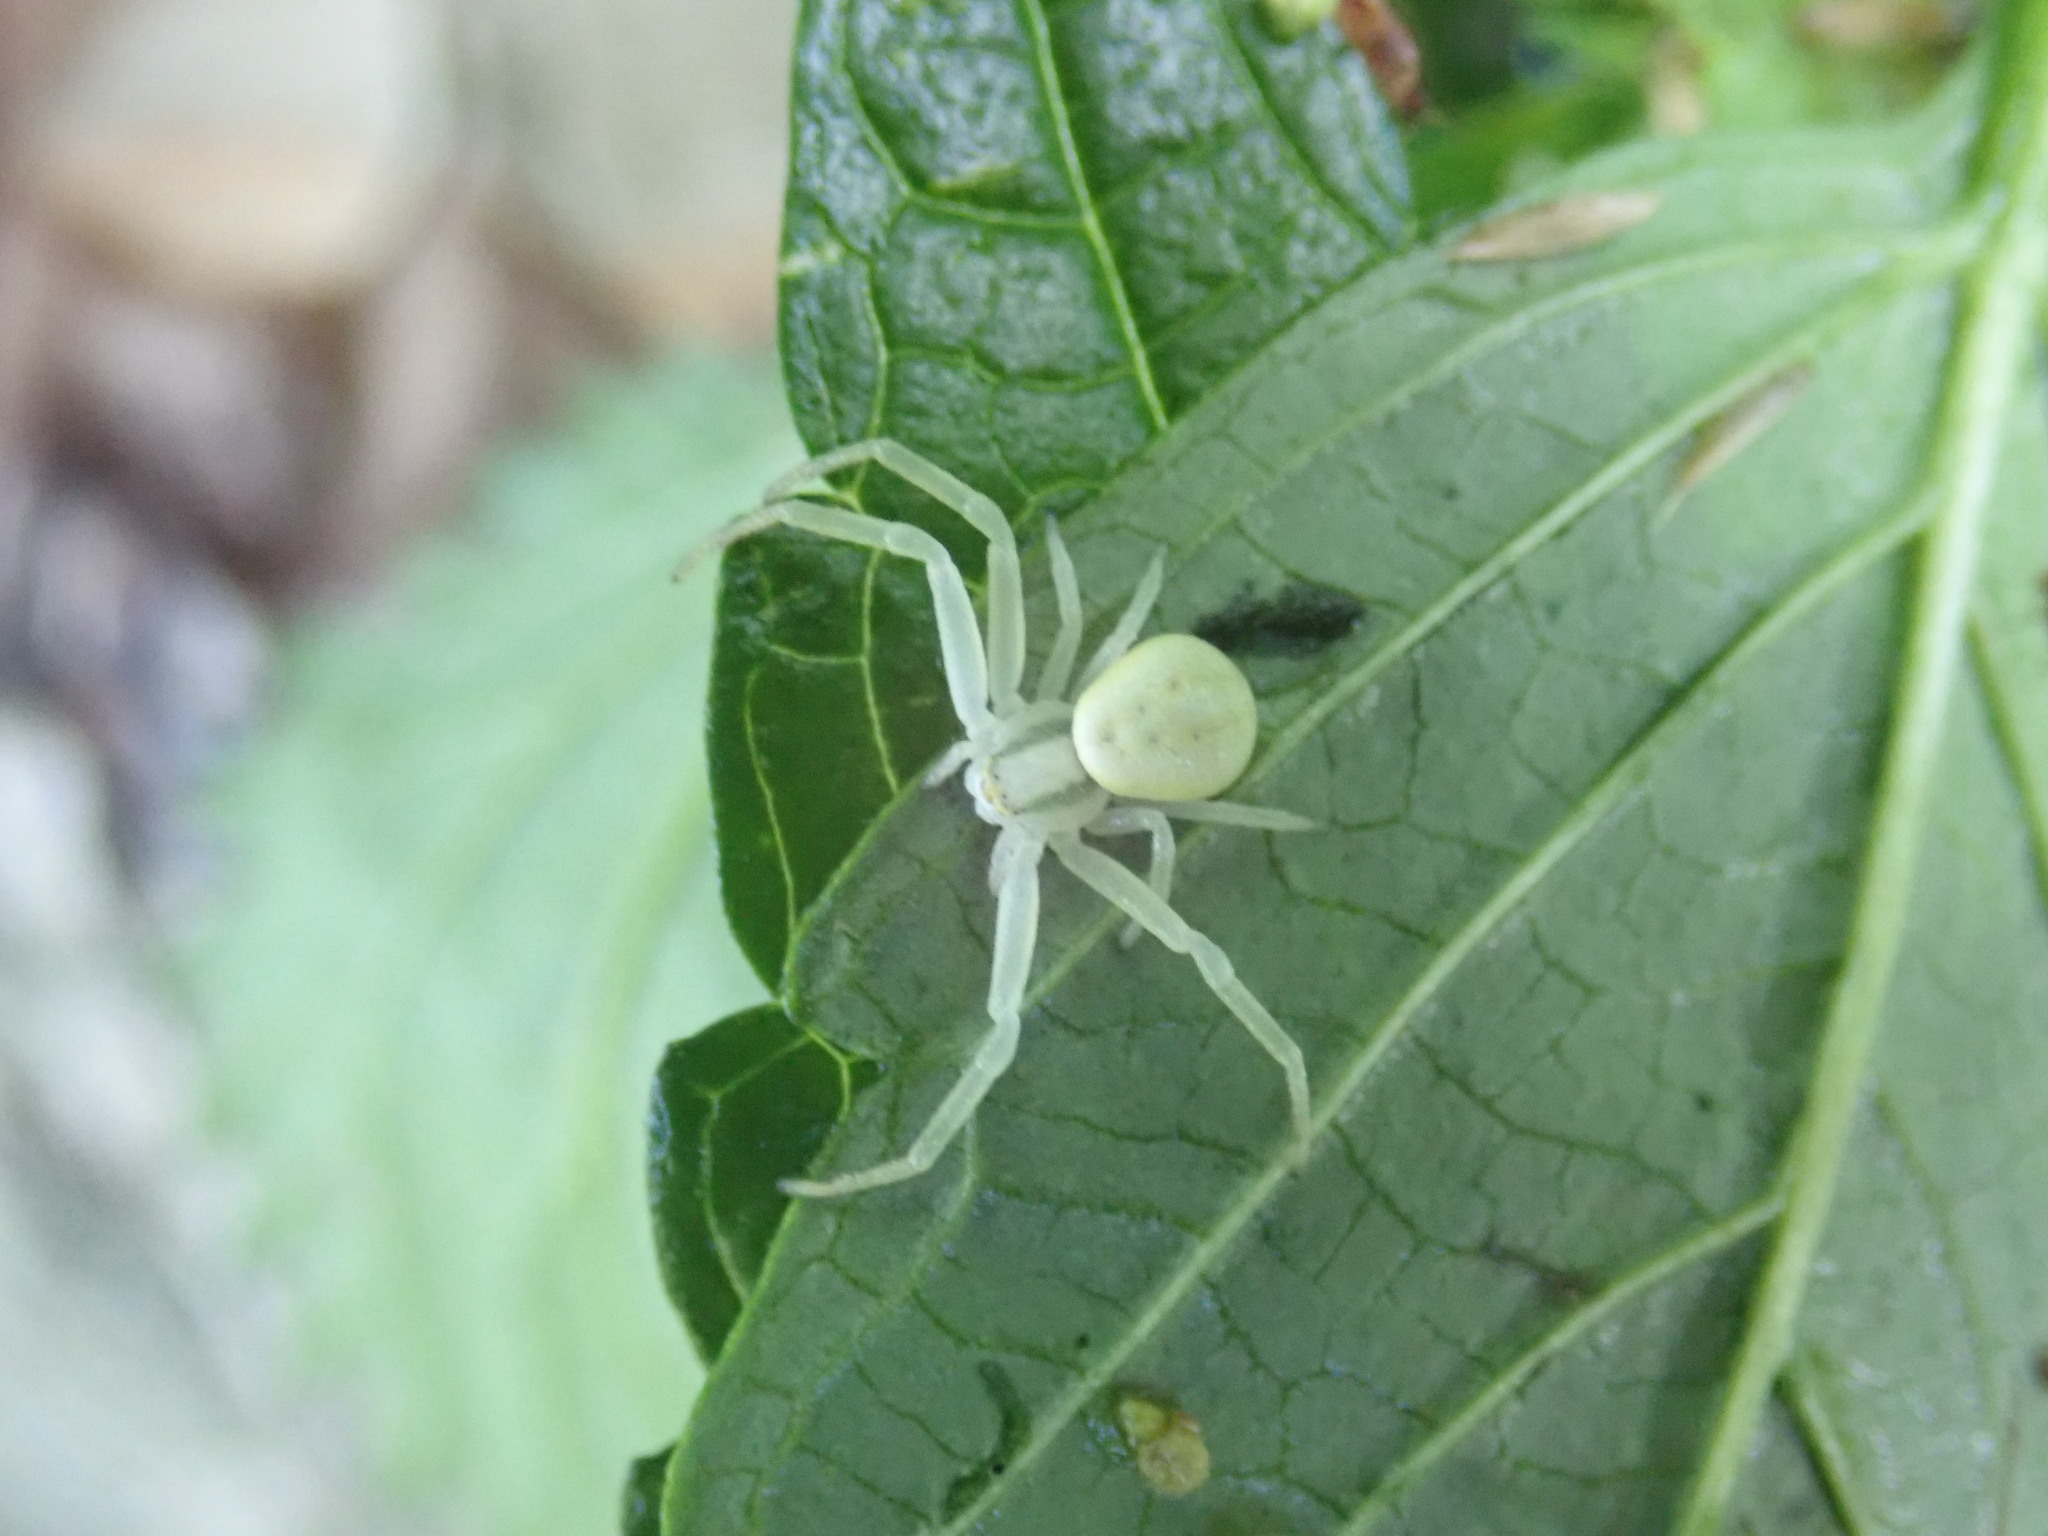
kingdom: Animalia
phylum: Arthropoda
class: Arachnida
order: Araneae
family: Thomisidae
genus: Misumena
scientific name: Misumena vatia
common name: Goldenrod crab spider
